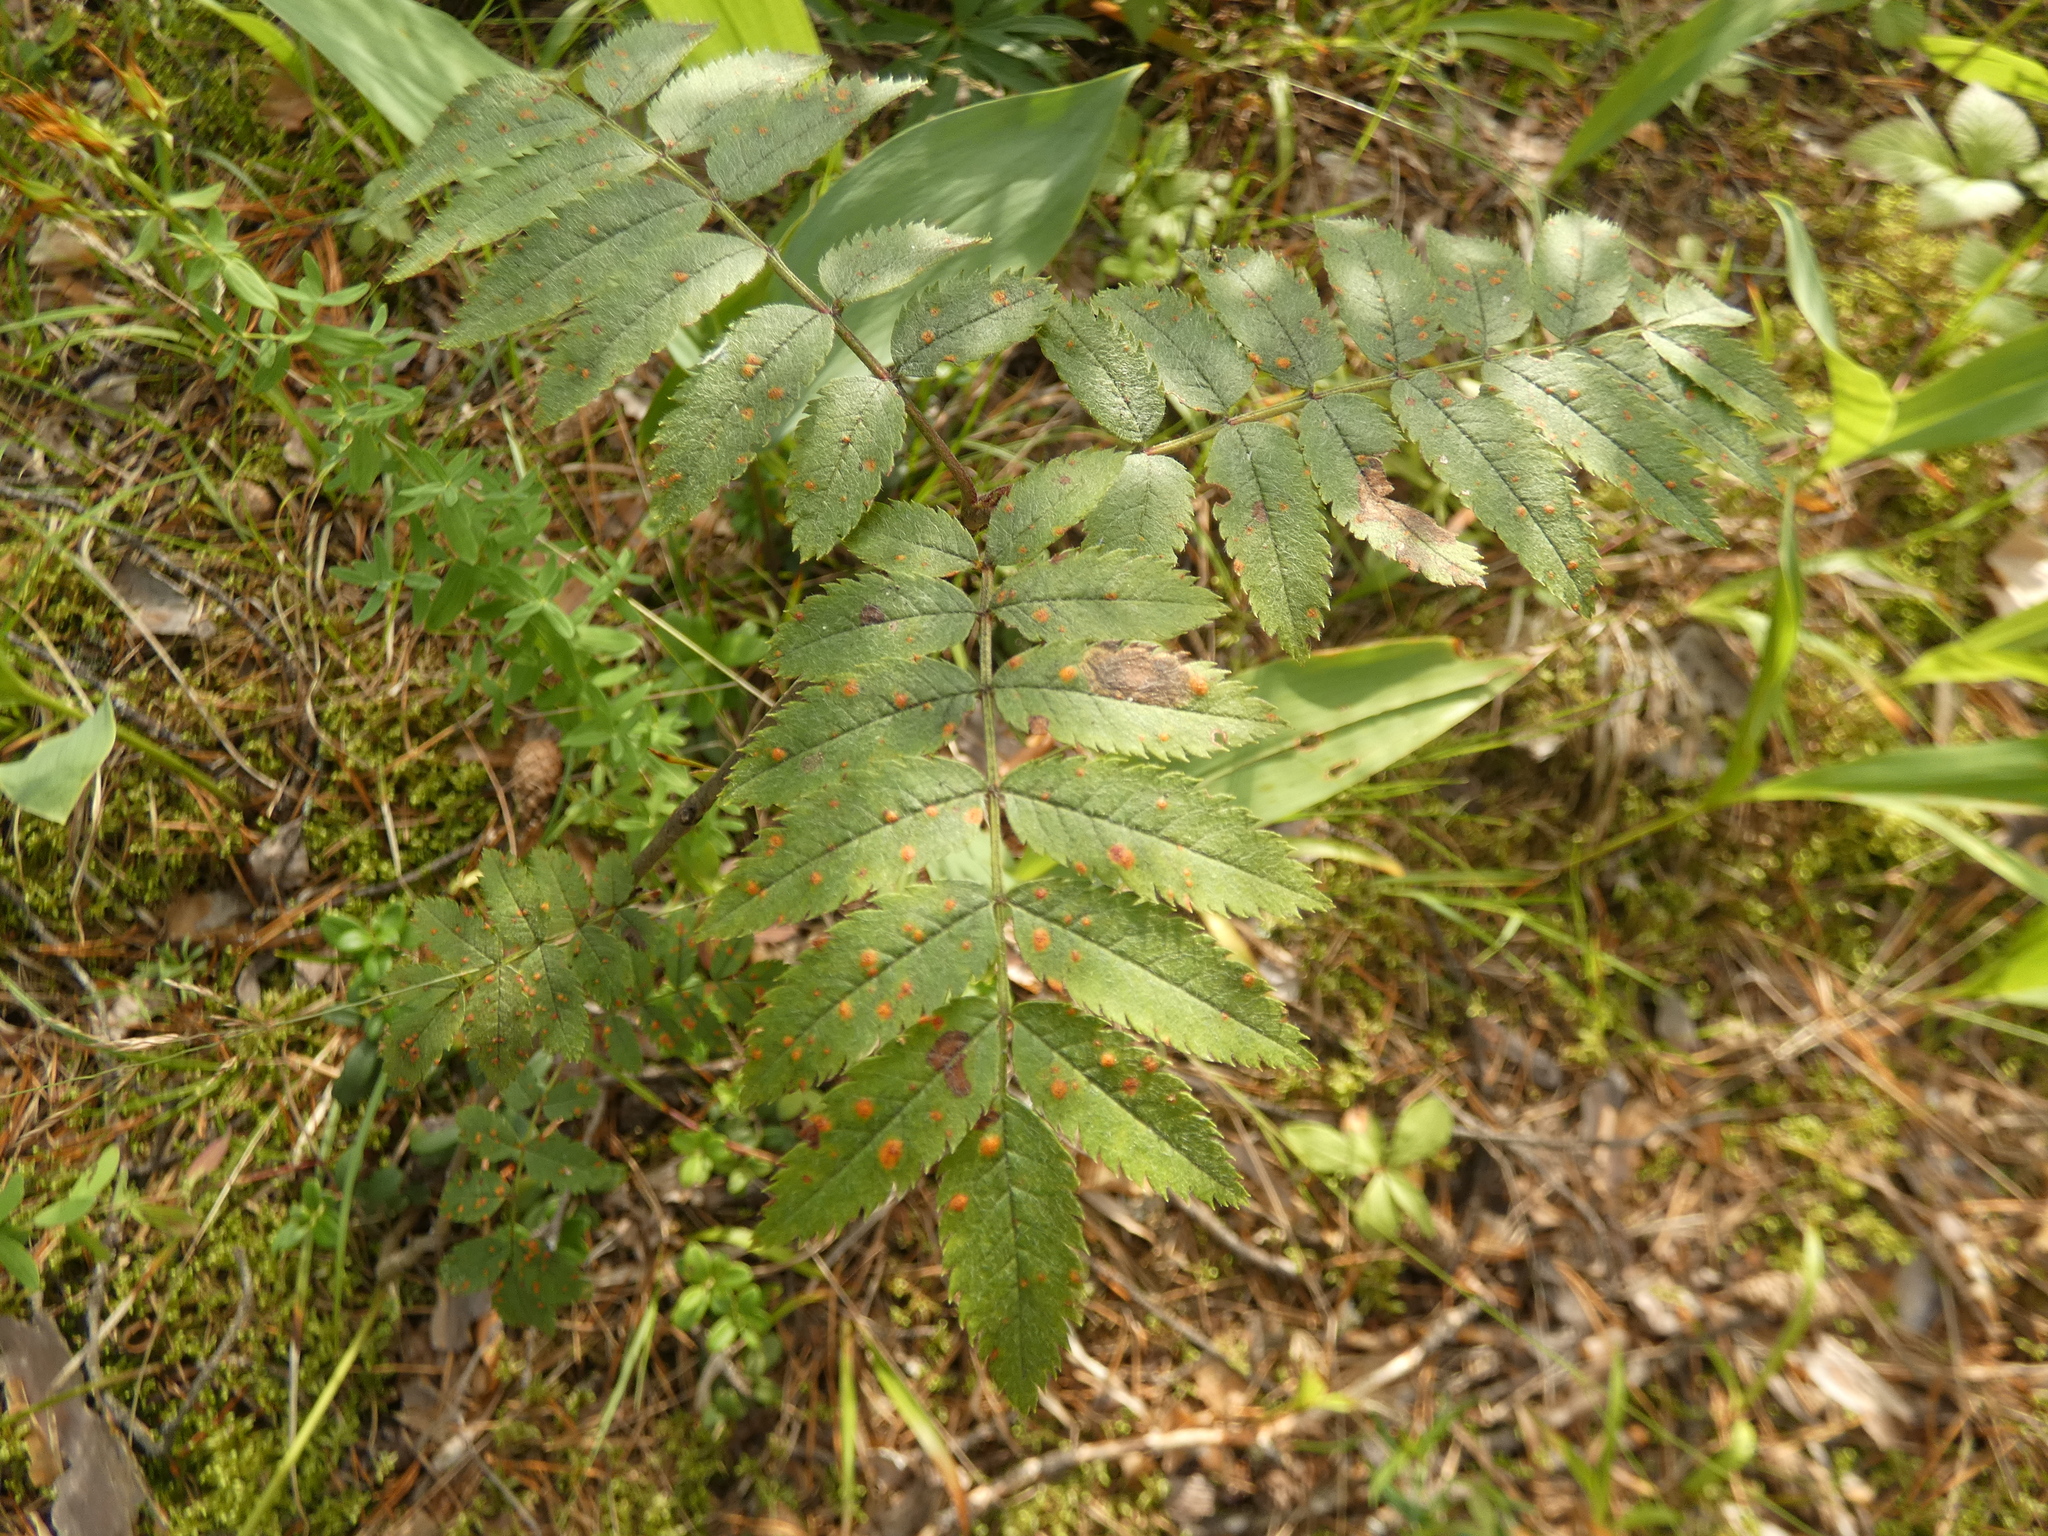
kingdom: Plantae
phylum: Tracheophyta
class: Magnoliopsida
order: Rosales
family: Rosaceae
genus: Sorbus
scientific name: Sorbus aucuparia
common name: Rowan
